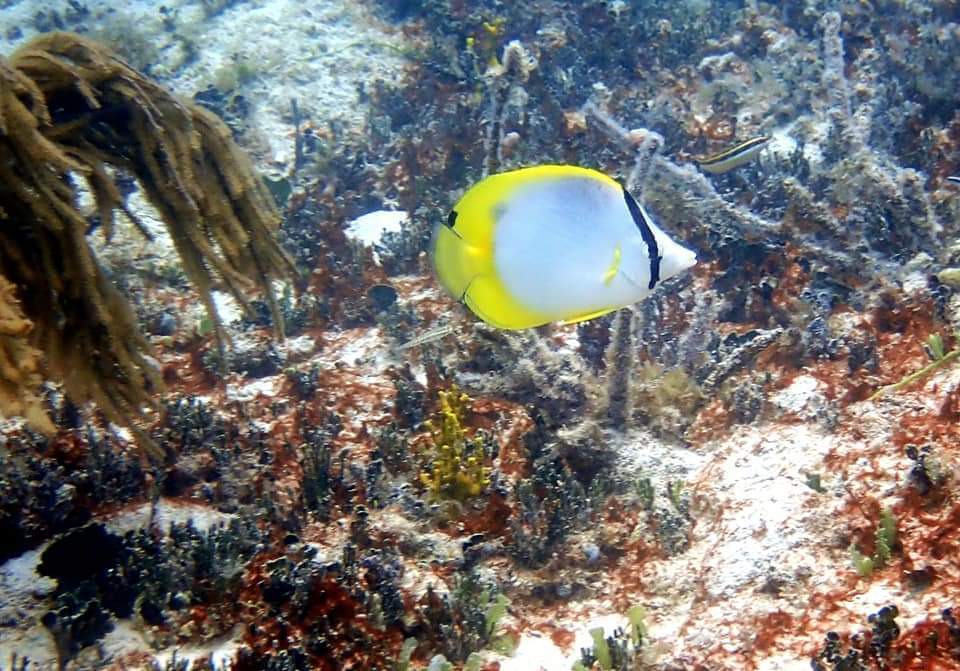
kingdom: Animalia
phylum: Chordata
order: Perciformes
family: Chaetodontidae
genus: Chaetodon
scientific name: Chaetodon ocellatus
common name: Spotfin butterflyfish
